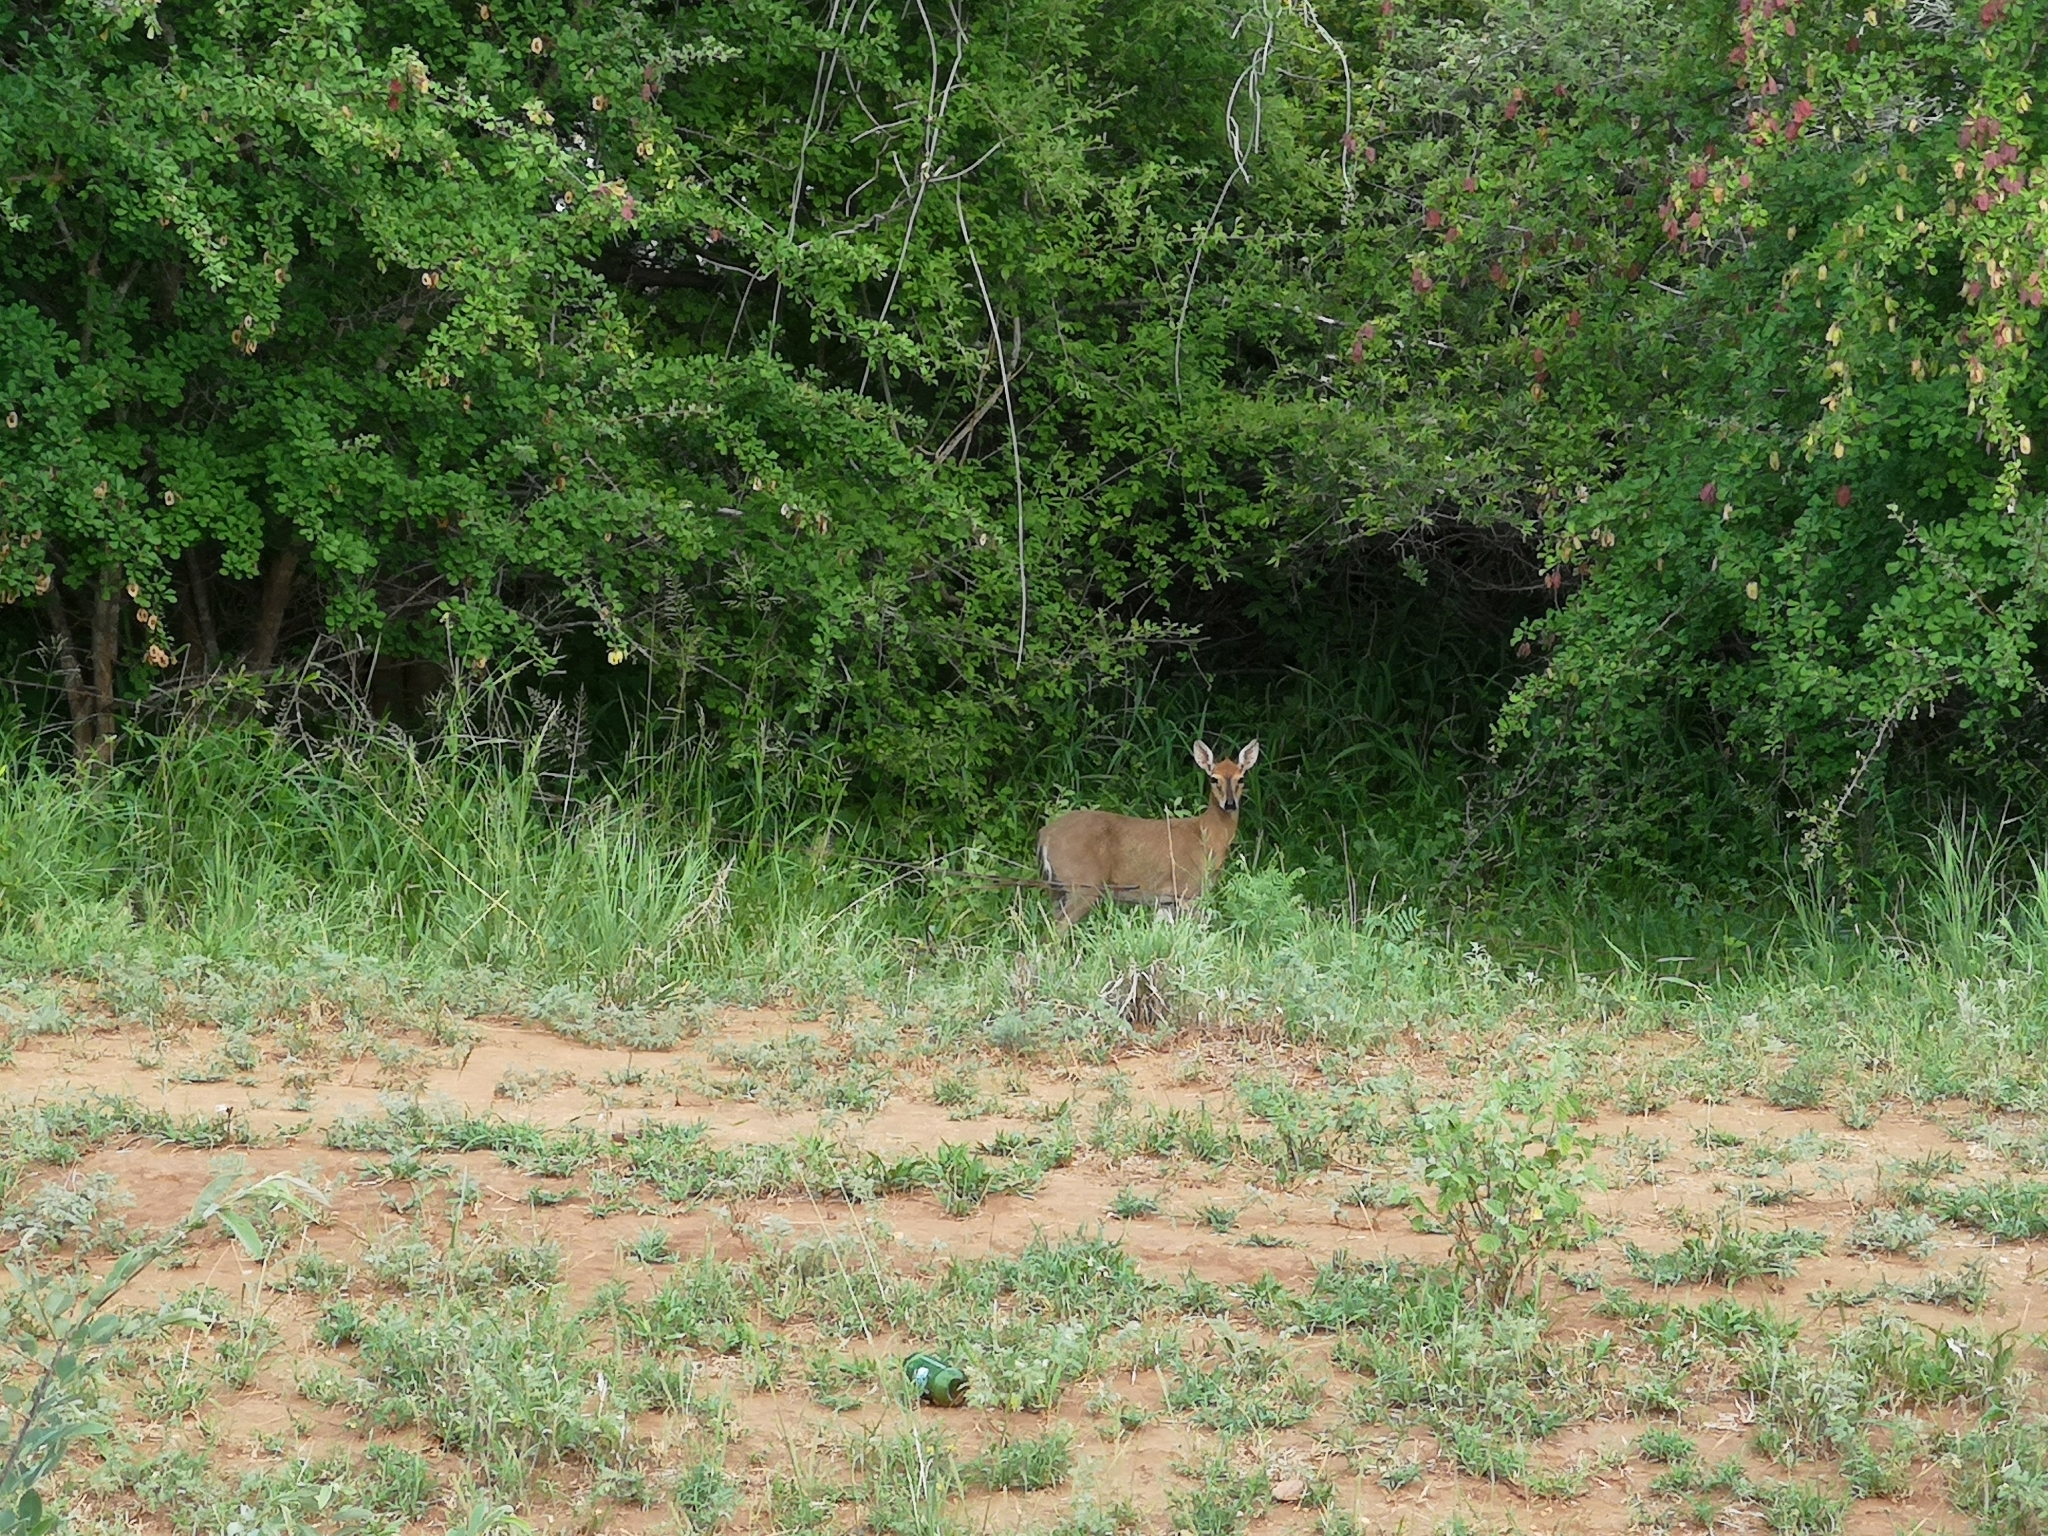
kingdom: Animalia
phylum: Chordata
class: Mammalia
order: Artiodactyla
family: Bovidae
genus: Sylvicapra
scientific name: Sylvicapra grimmia
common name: Bush duiker
